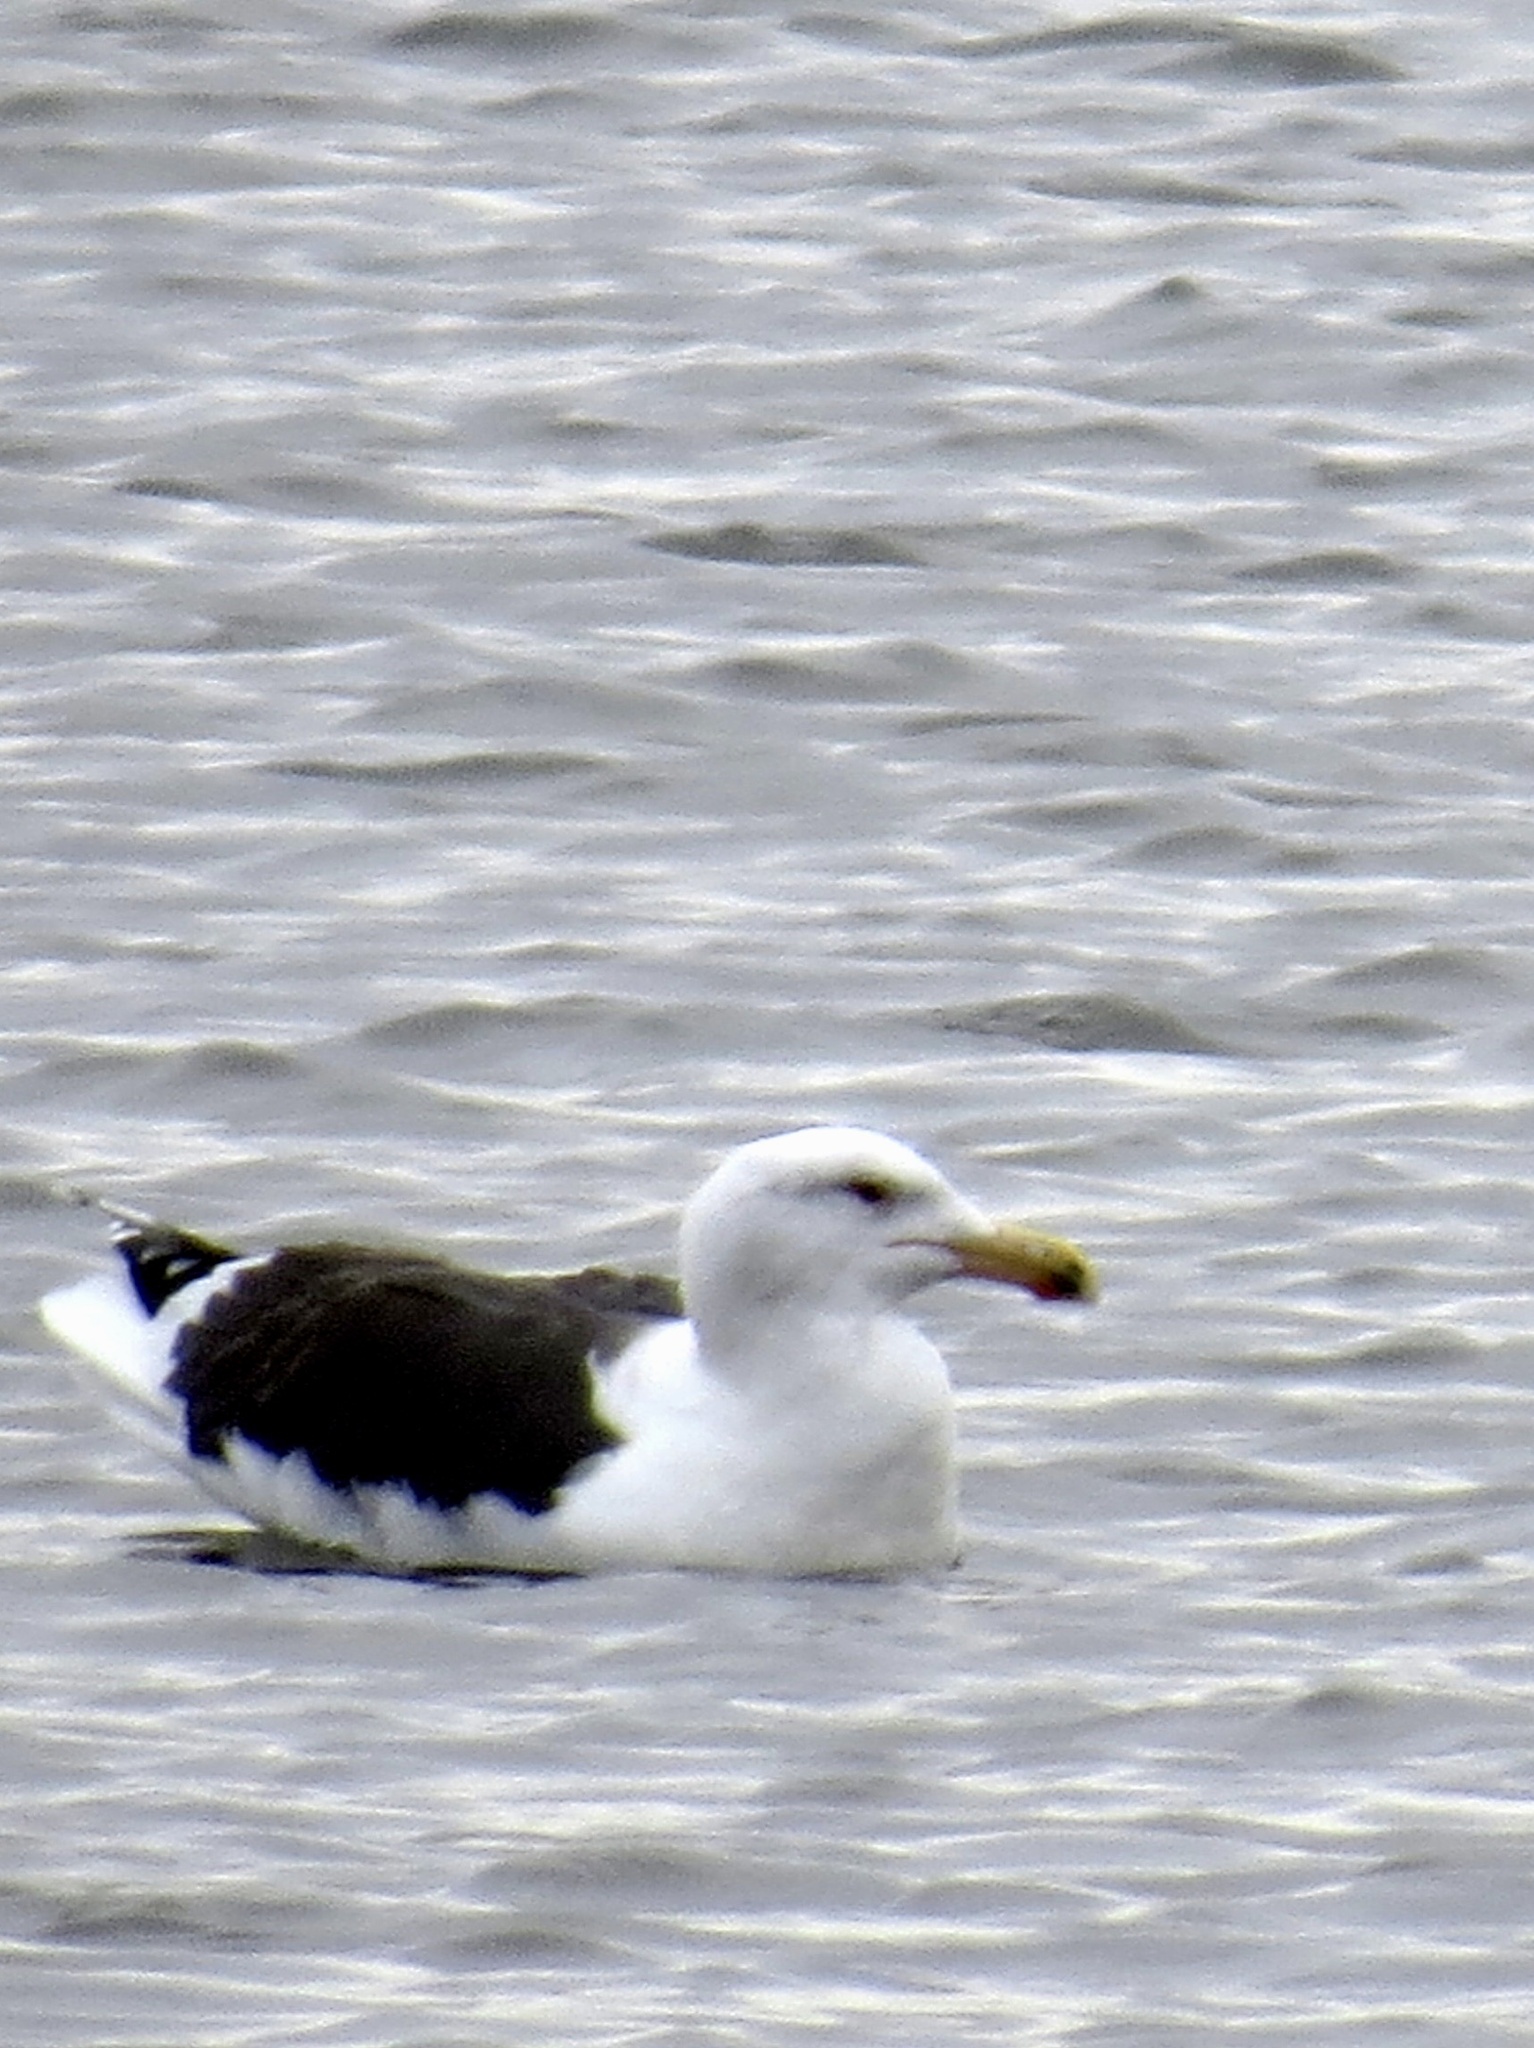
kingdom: Animalia
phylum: Chordata
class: Aves
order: Charadriiformes
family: Laridae
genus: Larus
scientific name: Larus marinus
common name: Great black-backed gull
